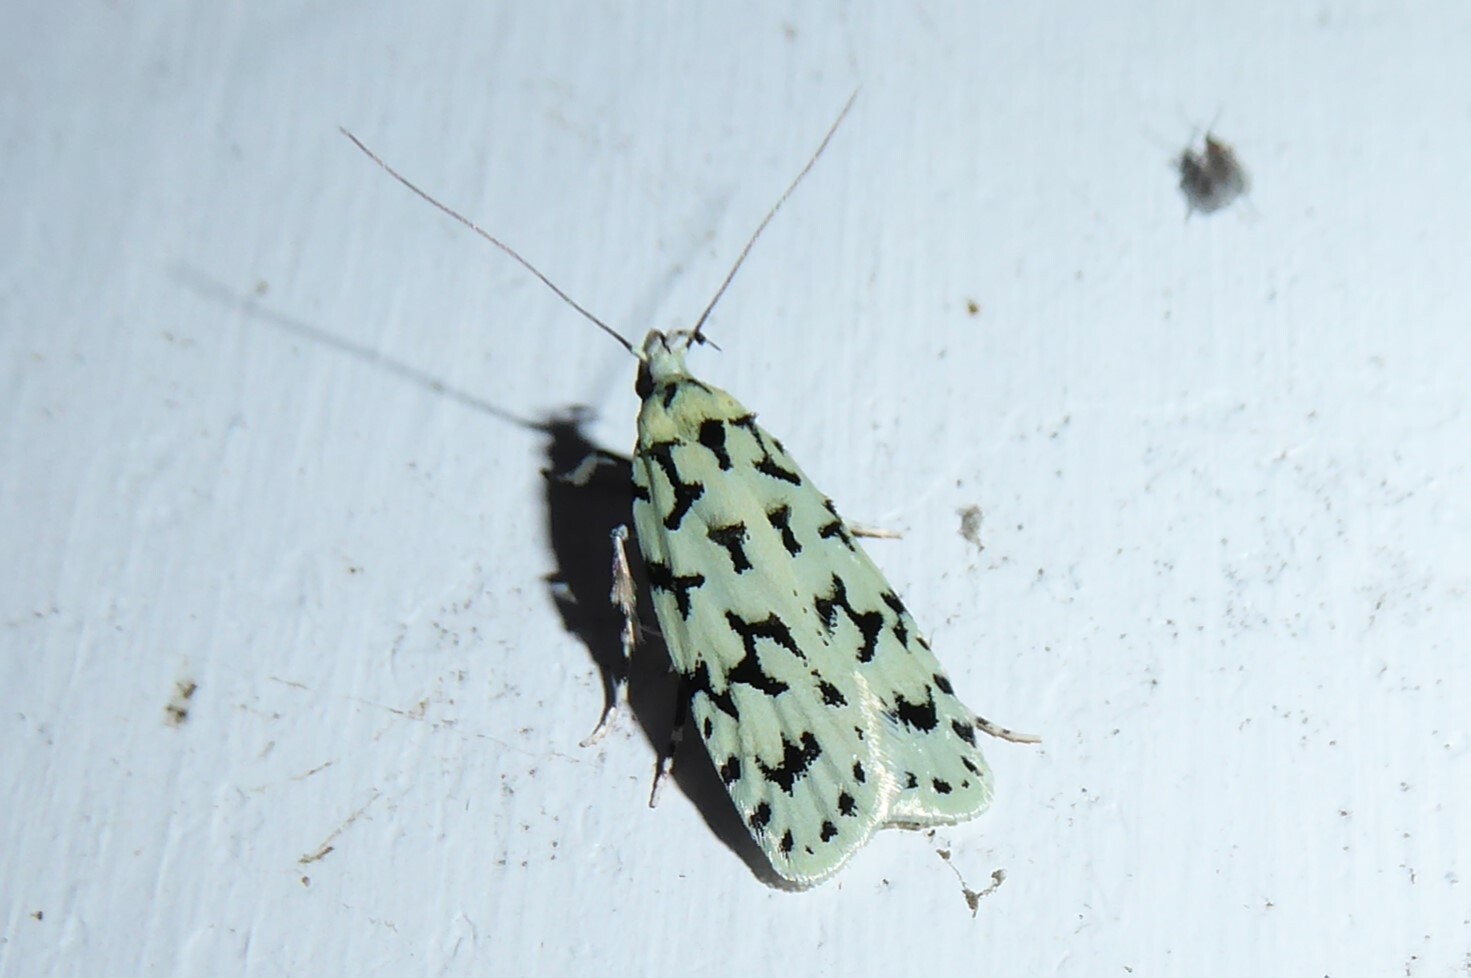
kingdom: Animalia
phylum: Arthropoda
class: Insecta
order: Lepidoptera
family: Oecophoridae
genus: Izatha
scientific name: Izatha huttoni
